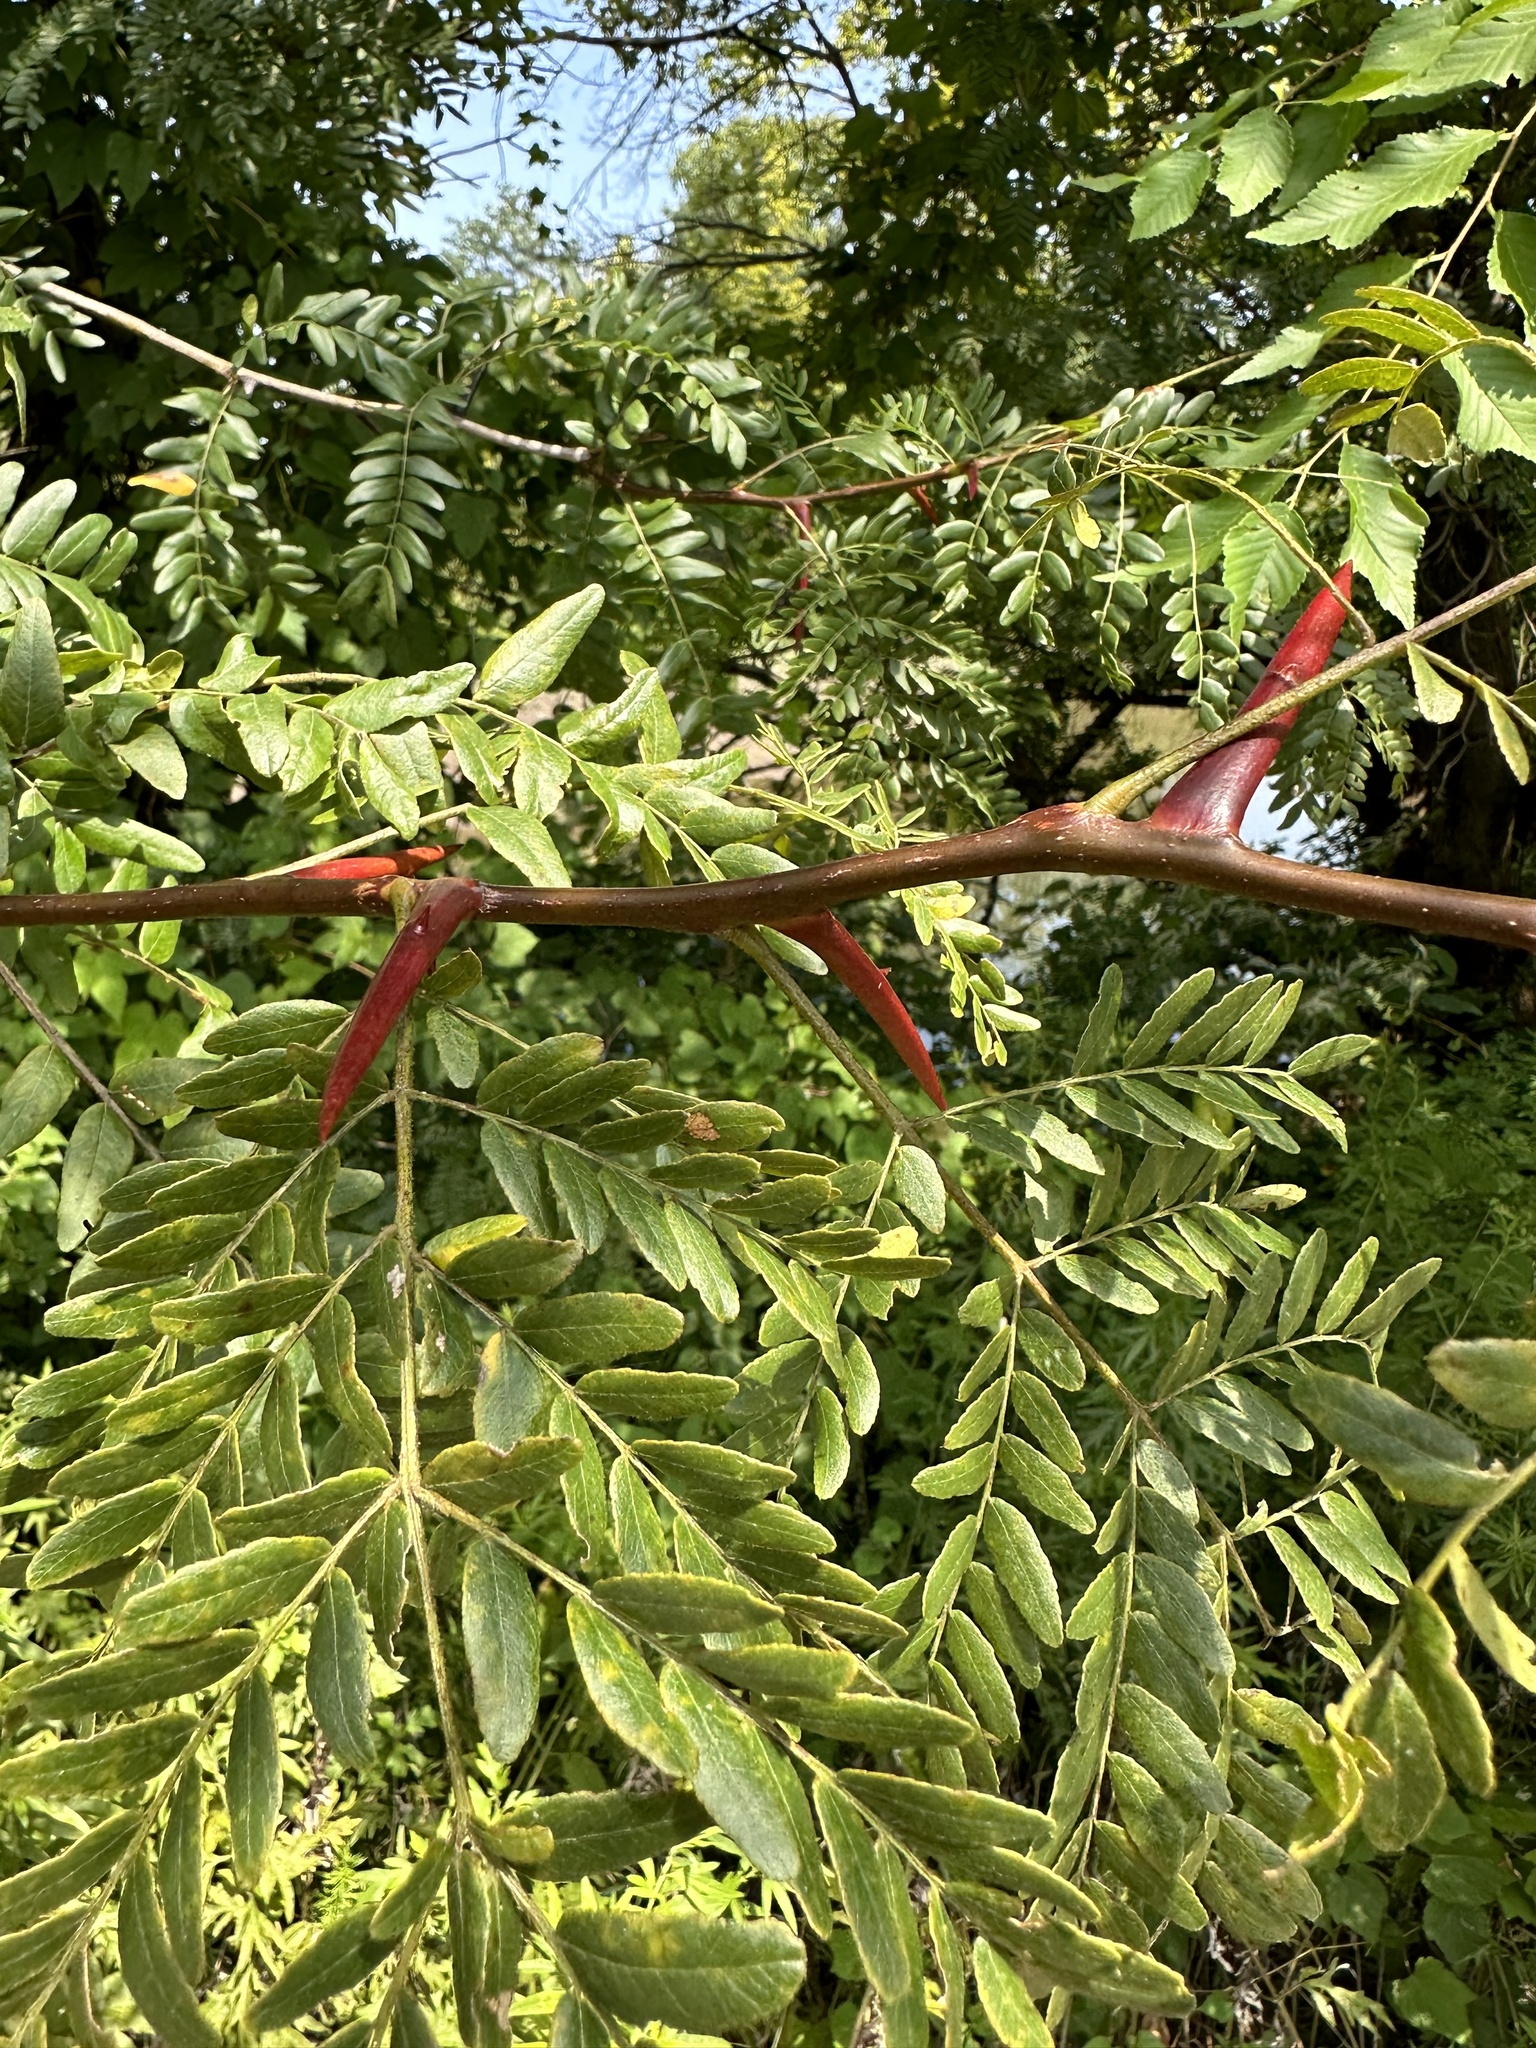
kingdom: Plantae
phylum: Tracheophyta
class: Magnoliopsida
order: Fabales
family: Fabaceae
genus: Gleditsia
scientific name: Gleditsia triacanthos
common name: Common honeylocust
